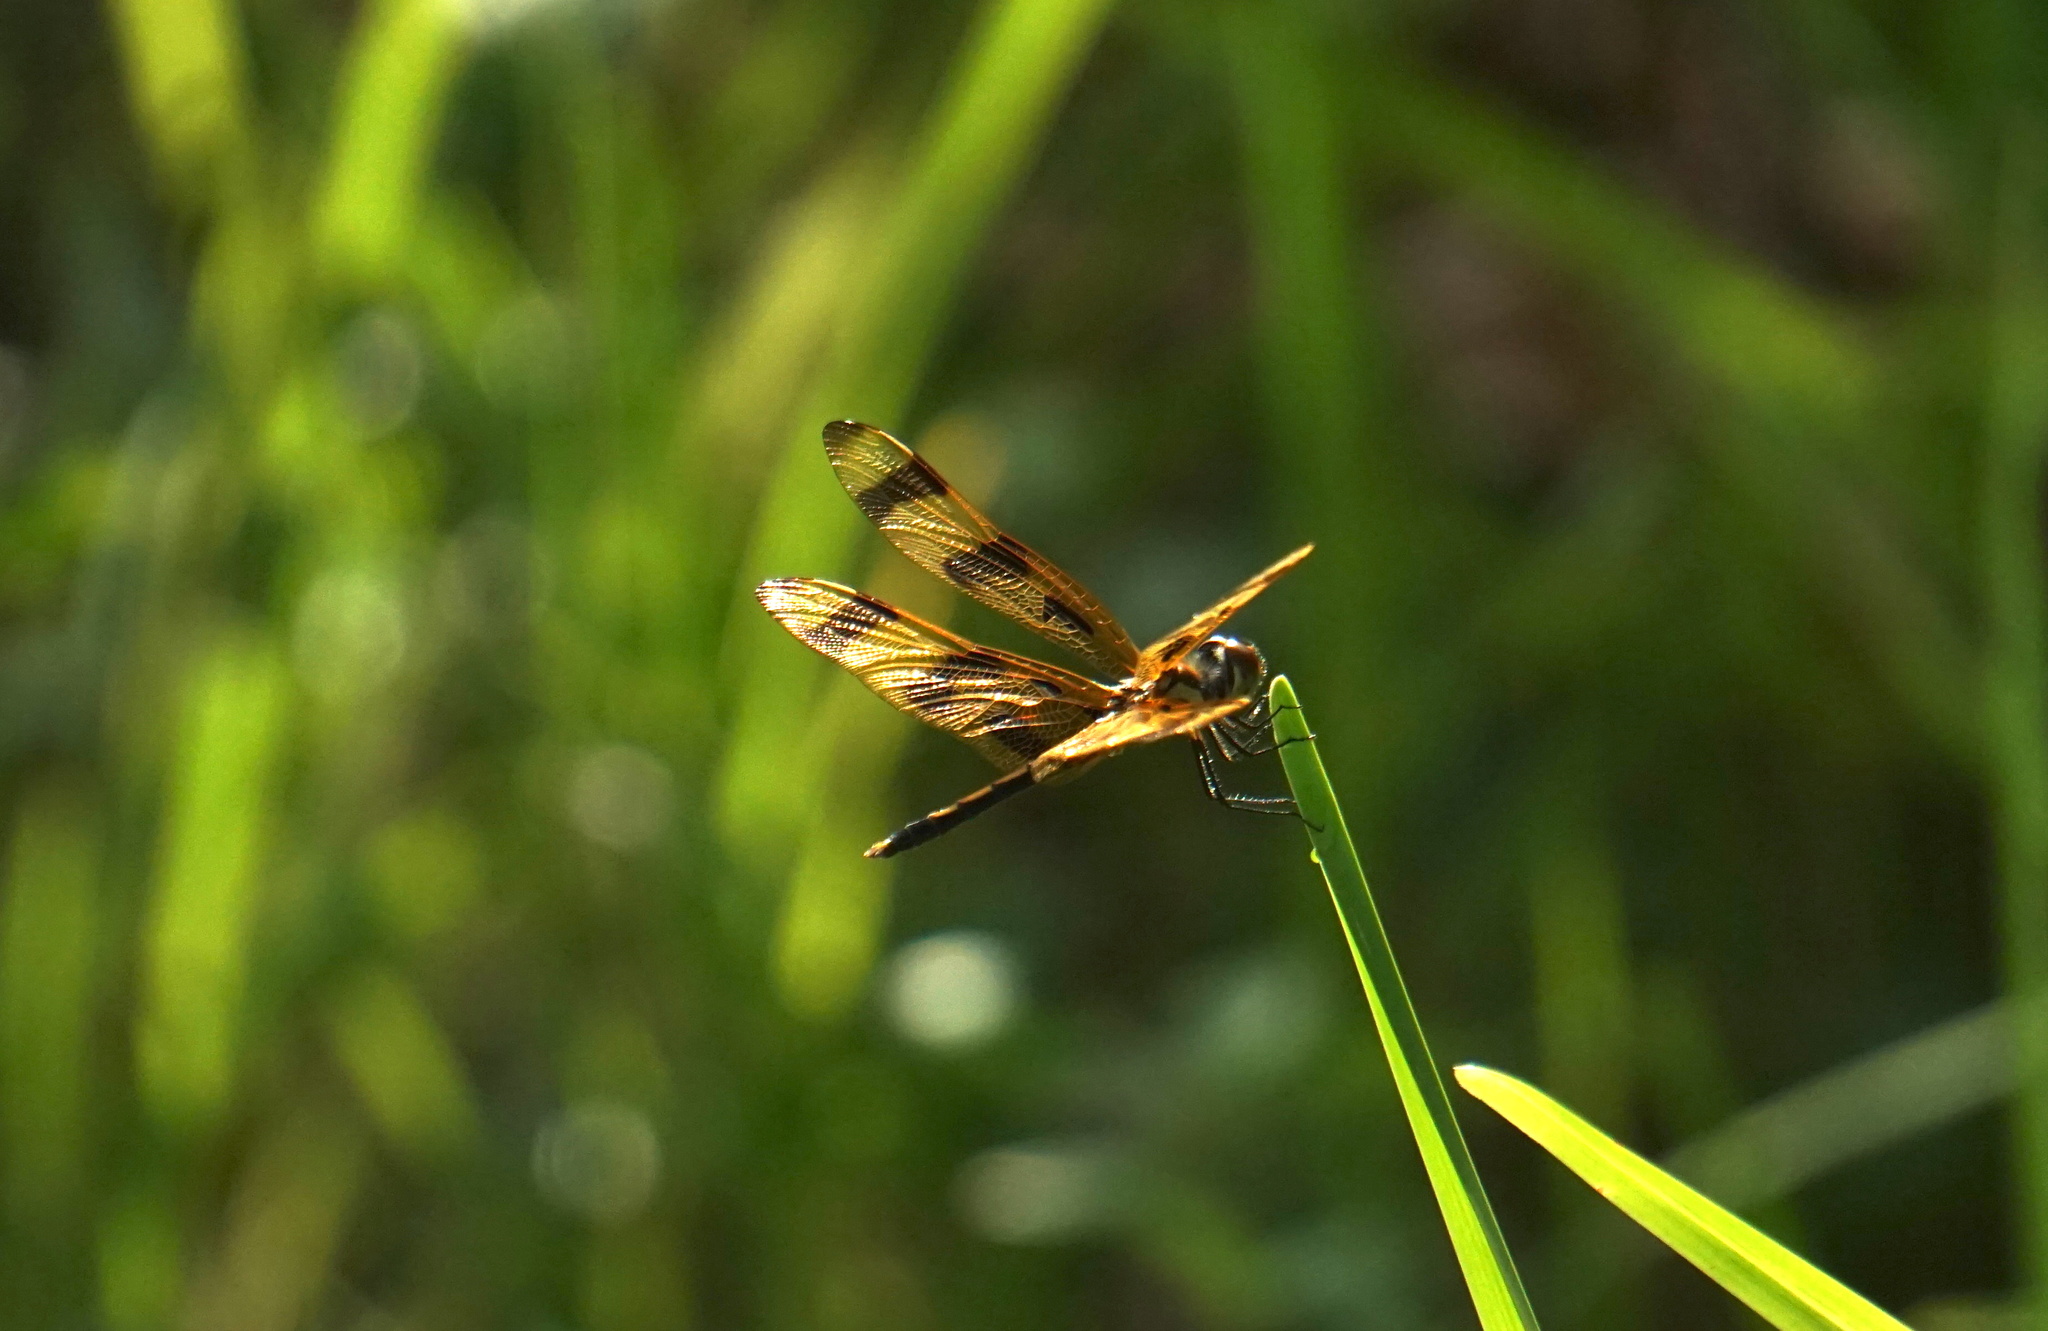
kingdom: Animalia
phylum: Arthropoda
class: Insecta
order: Odonata
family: Libellulidae
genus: Celithemis
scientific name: Celithemis eponina
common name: Halloween pennant
